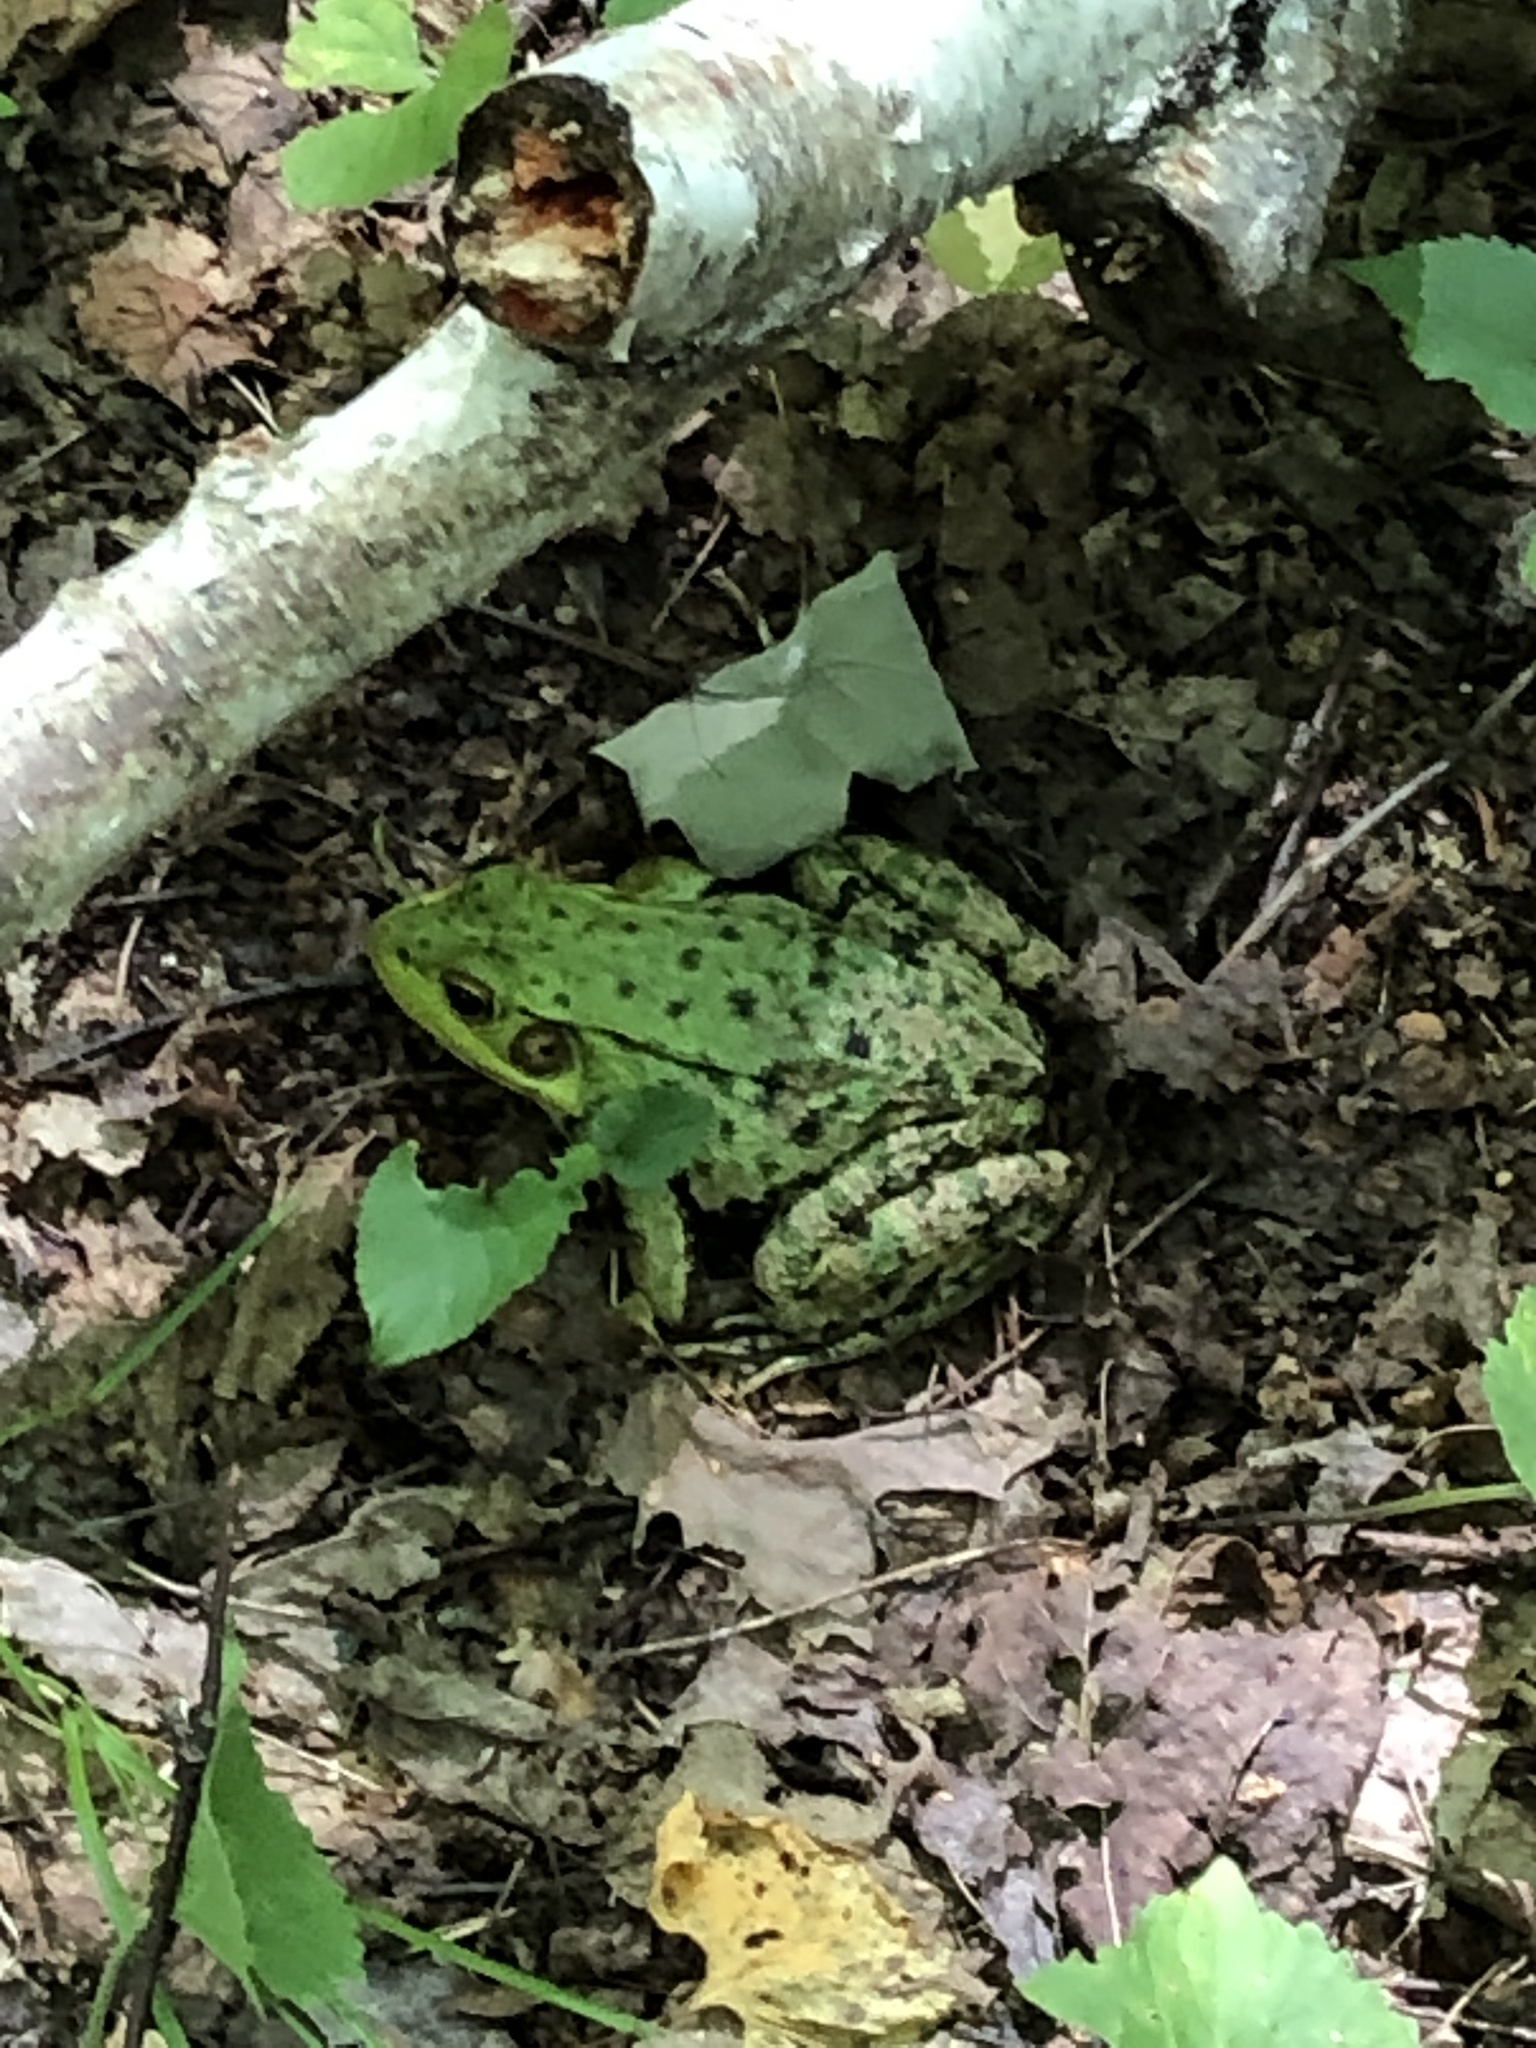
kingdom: Animalia
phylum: Chordata
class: Amphibia
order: Anura
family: Ranidae
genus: Lithobates
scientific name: Lithobates clamitans
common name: Green frog
